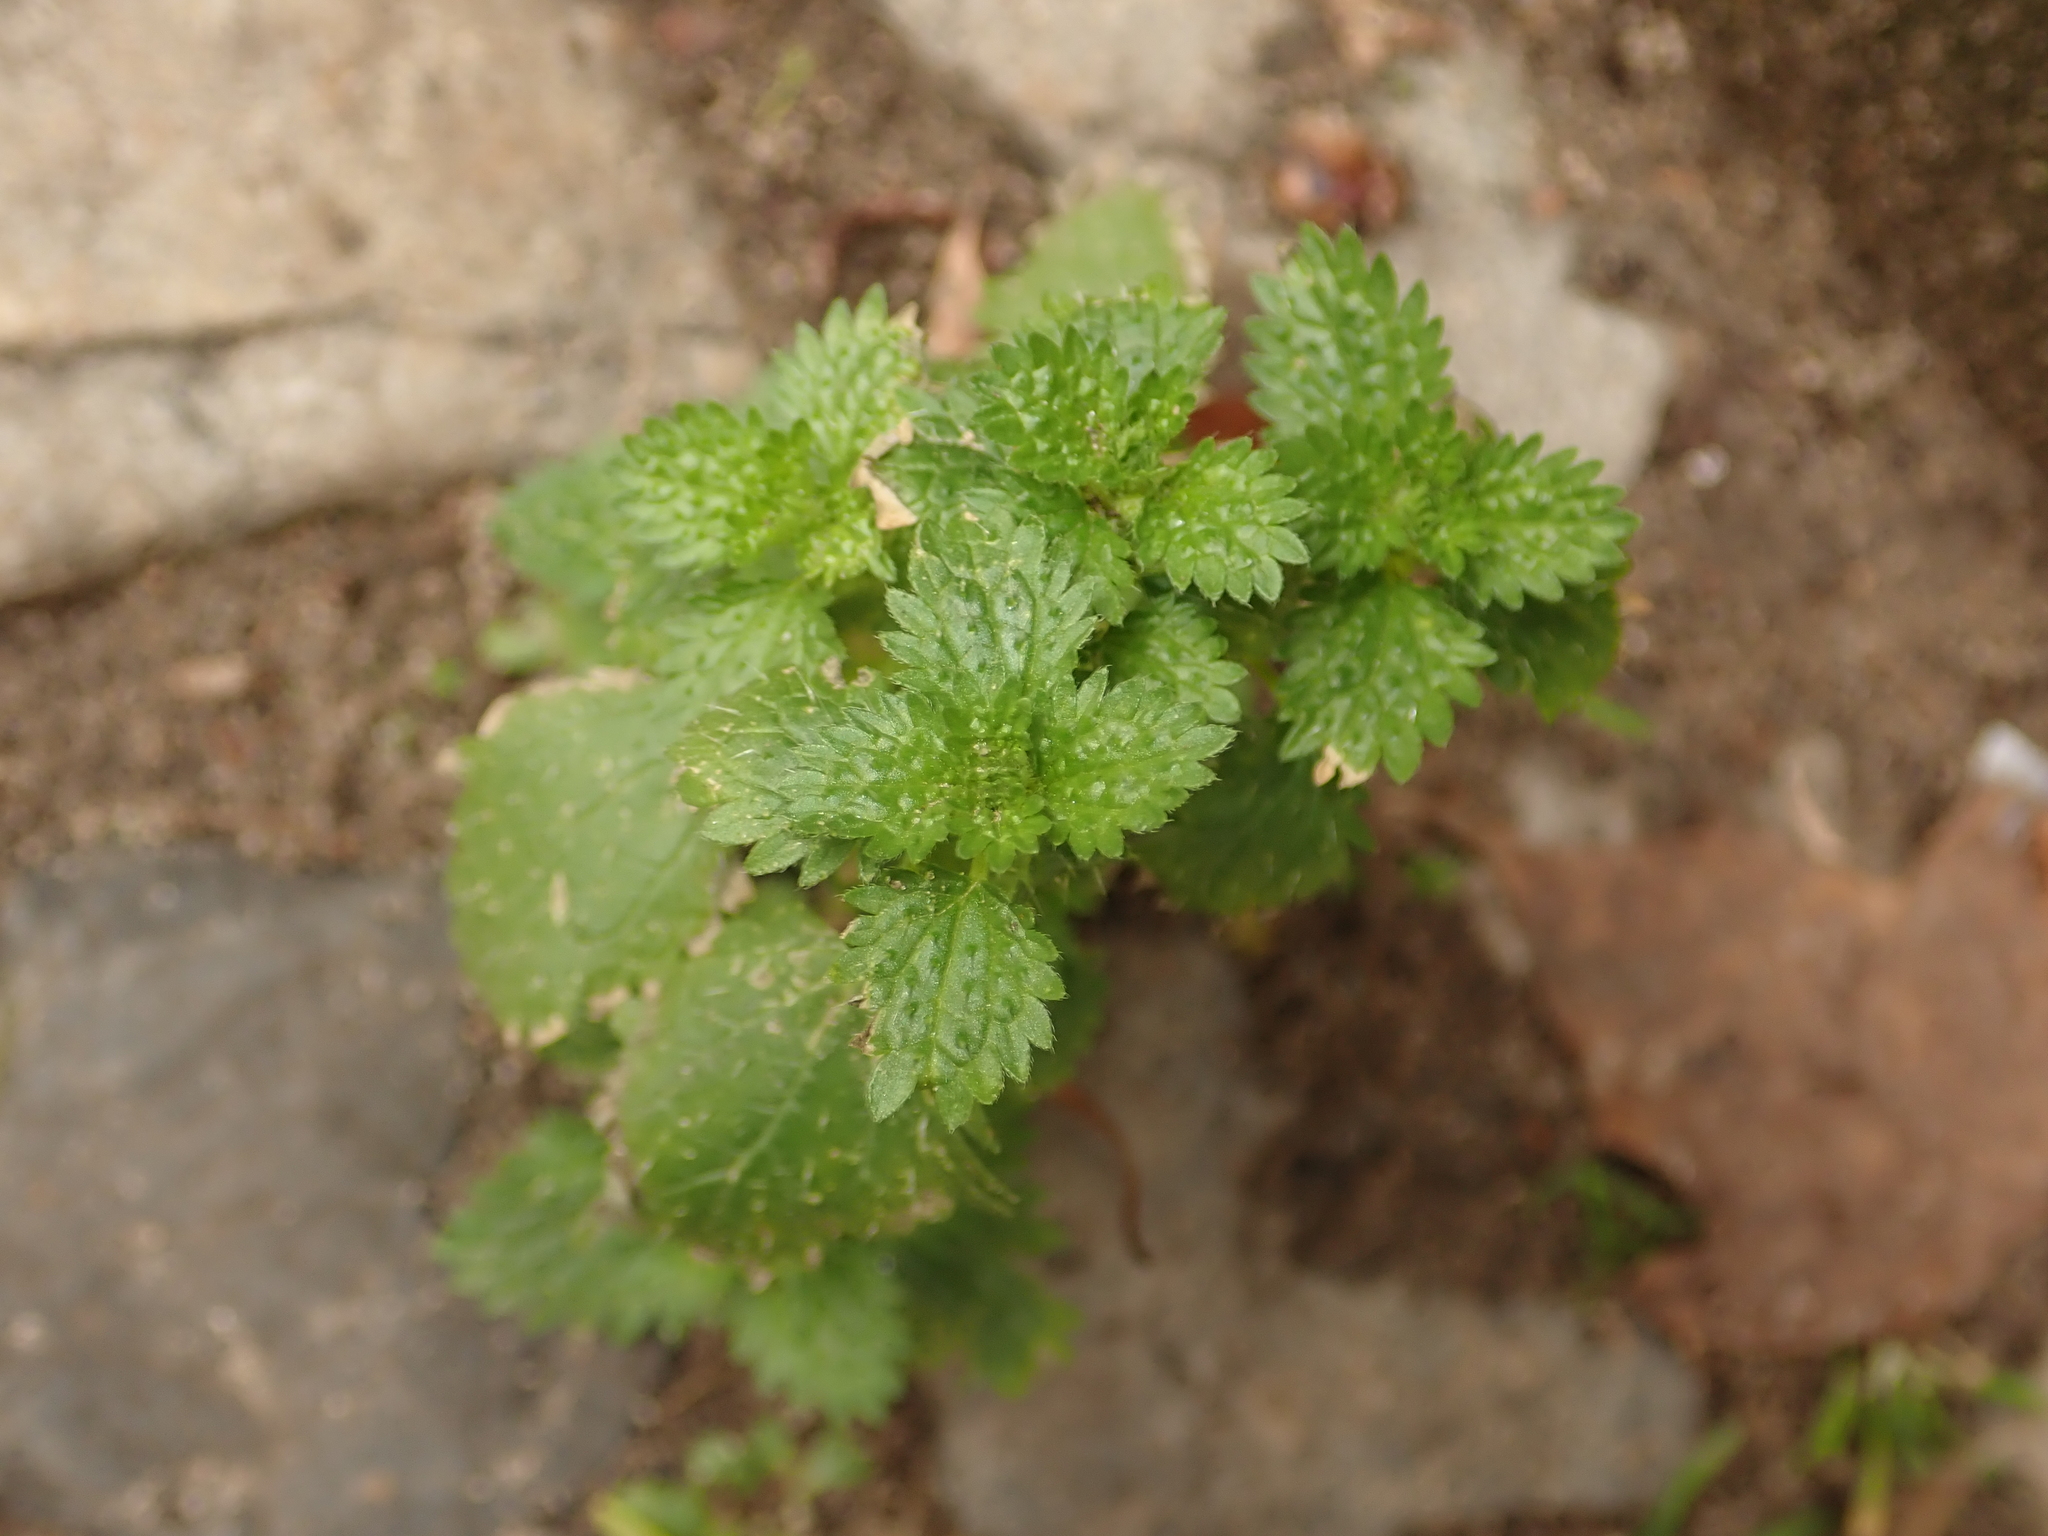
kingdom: Plantae
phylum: Tracheophyta
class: Magnoliopsida
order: Rosales
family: Urticaceae
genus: Urtica
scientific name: Urtica urens
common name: Dwarf nettle
